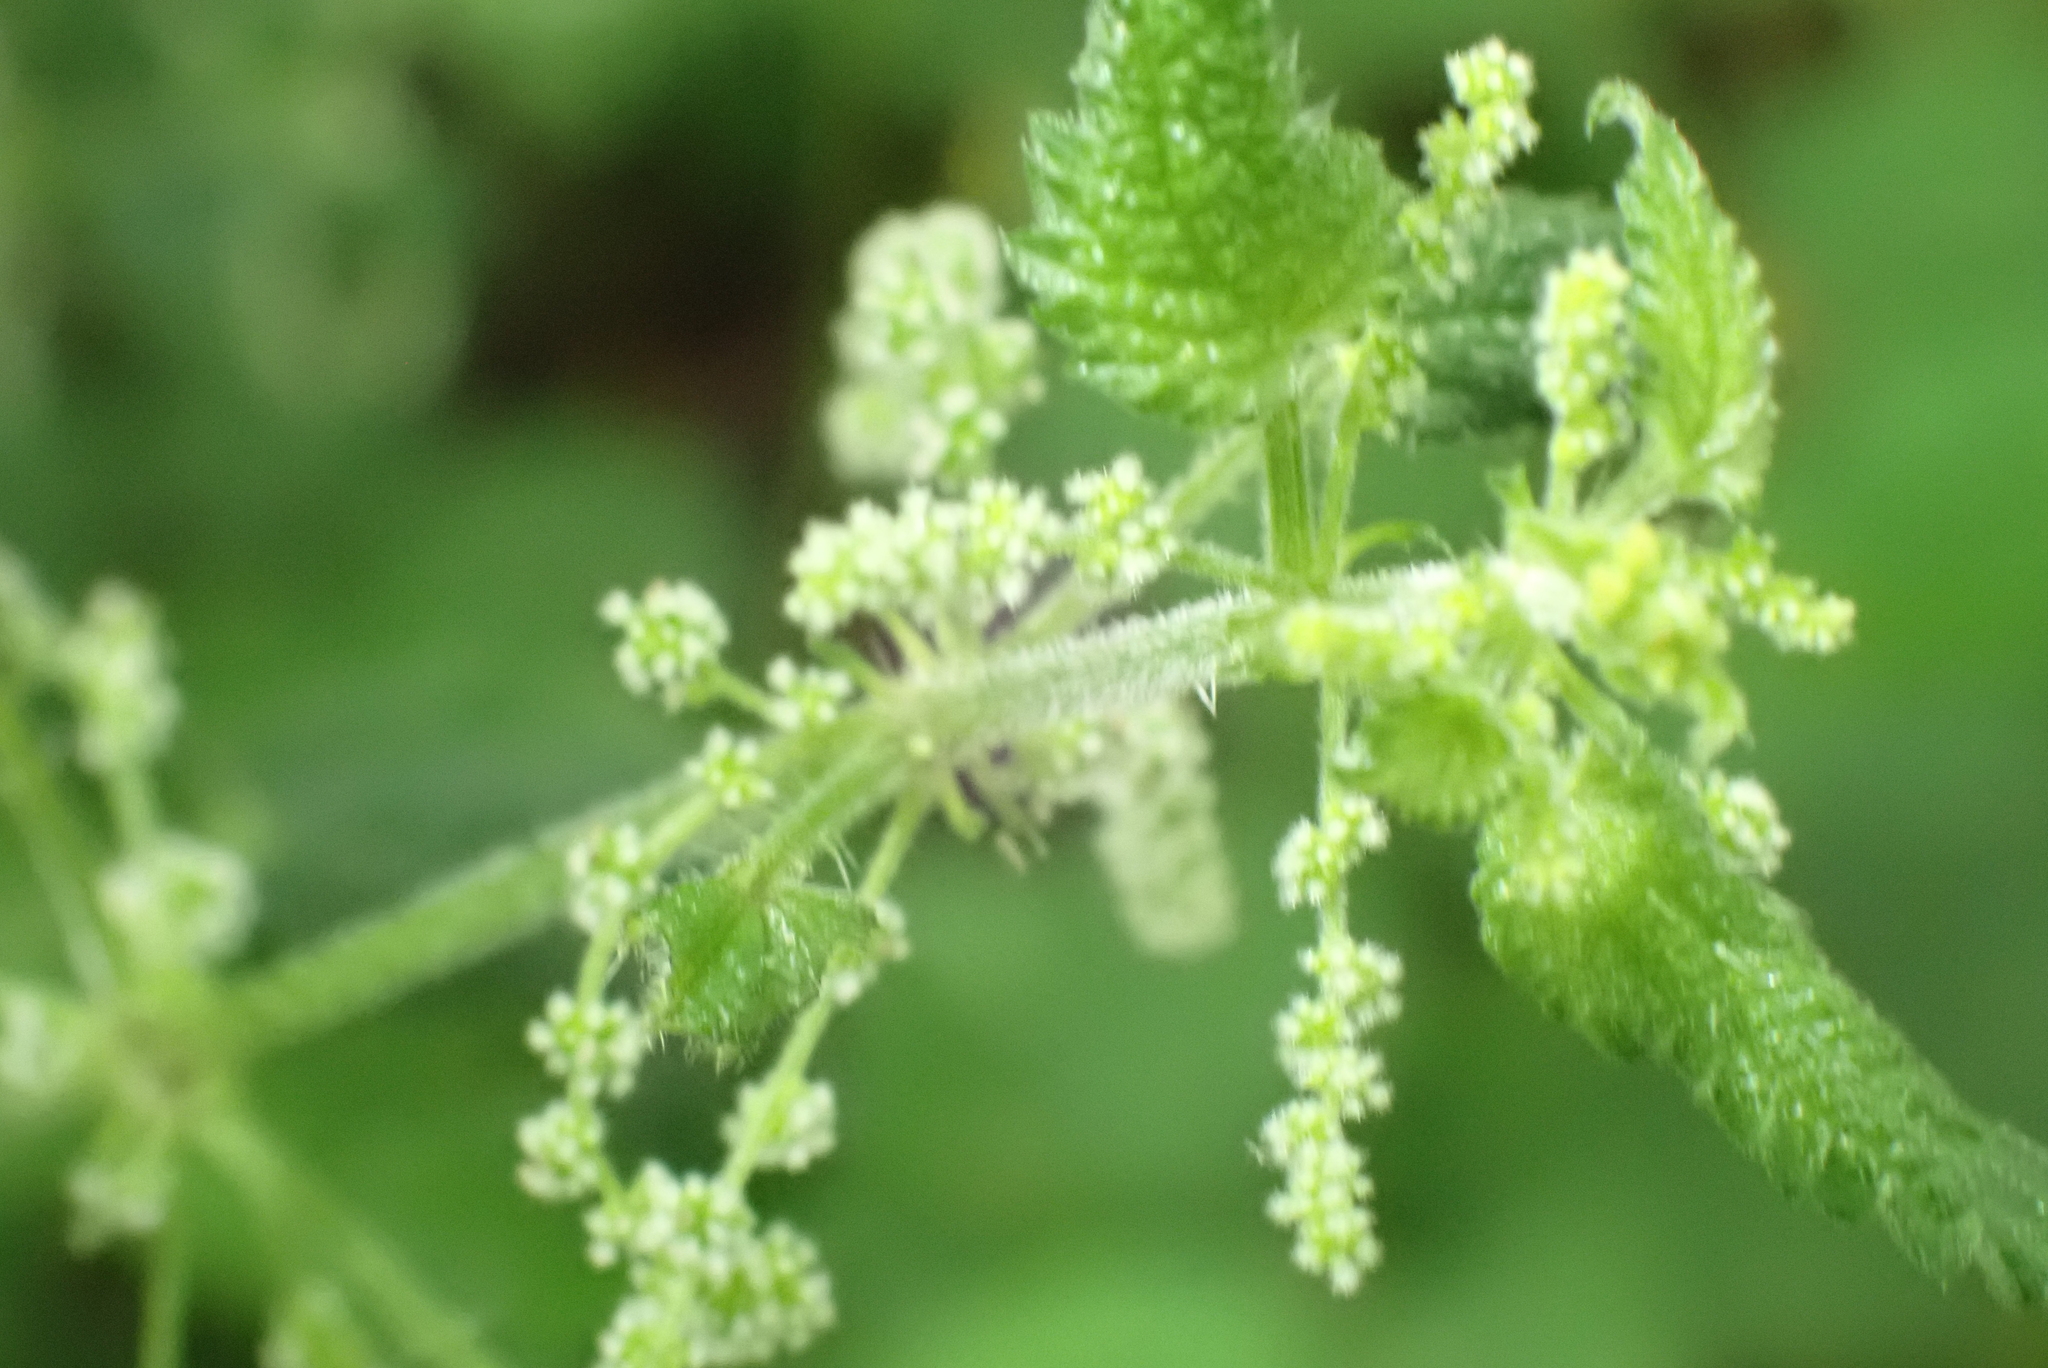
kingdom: Plantae
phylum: Tracheophyta
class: Magnoliopsida
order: Rosales
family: Urticaceae
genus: Urtica
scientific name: Urtica dioica
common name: Common nettle
